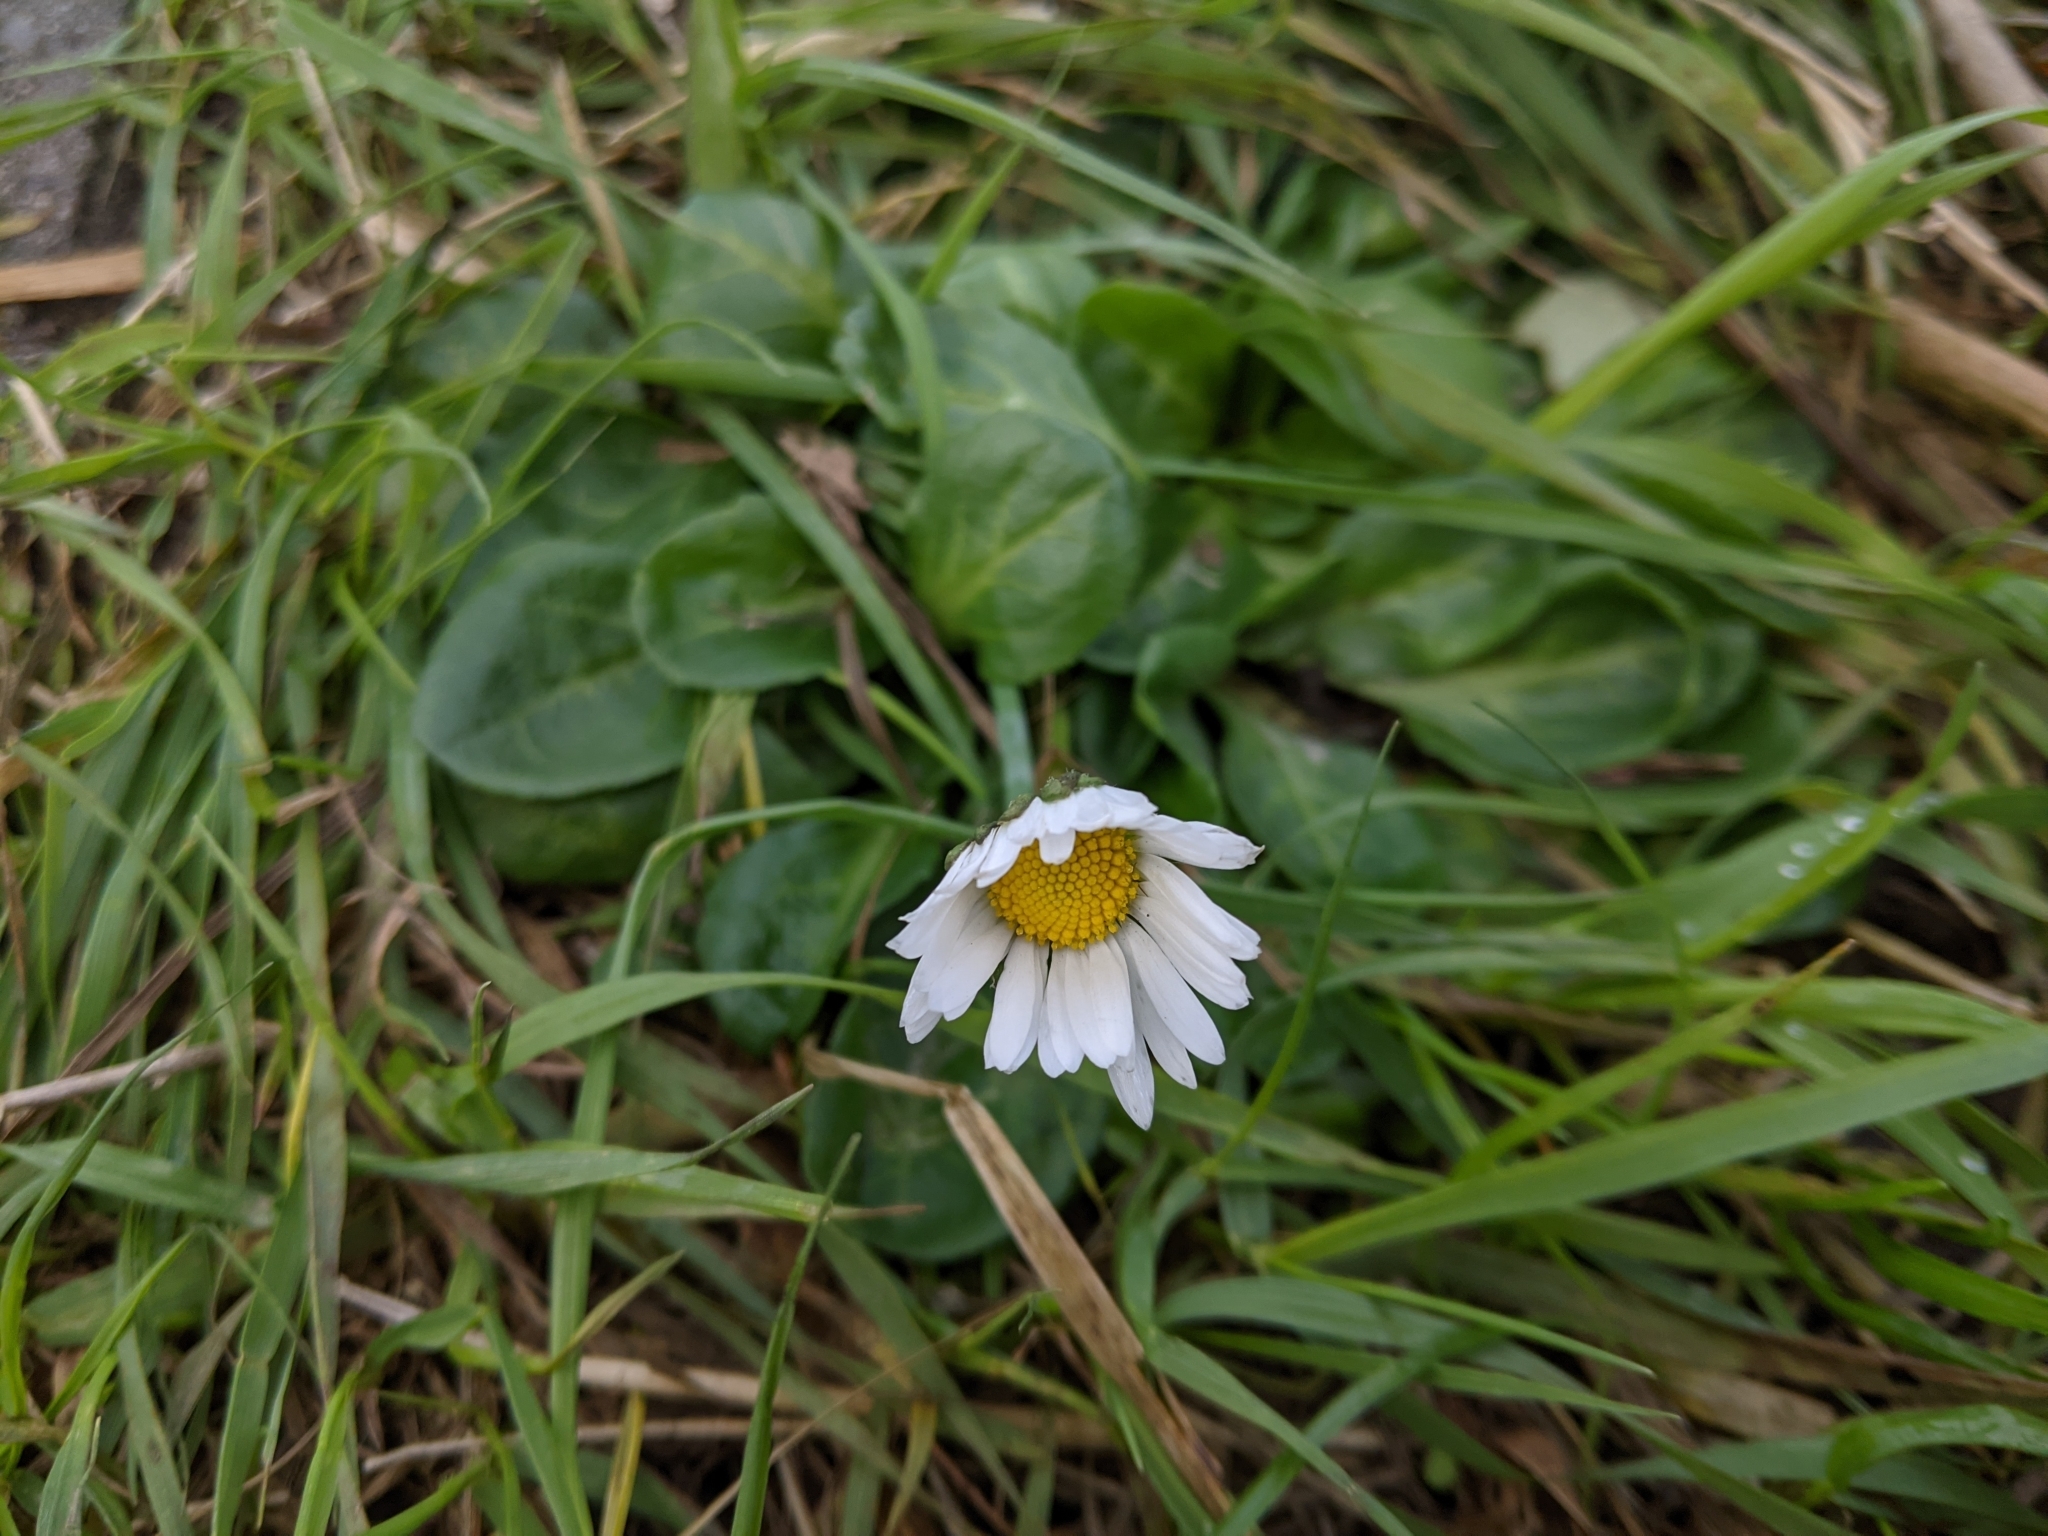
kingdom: Plantae
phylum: Tracheophyta
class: Magnoliopsida
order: Asterales
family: Asteraceae
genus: Bellis
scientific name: Bellis perennis
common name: Lawndaisy
